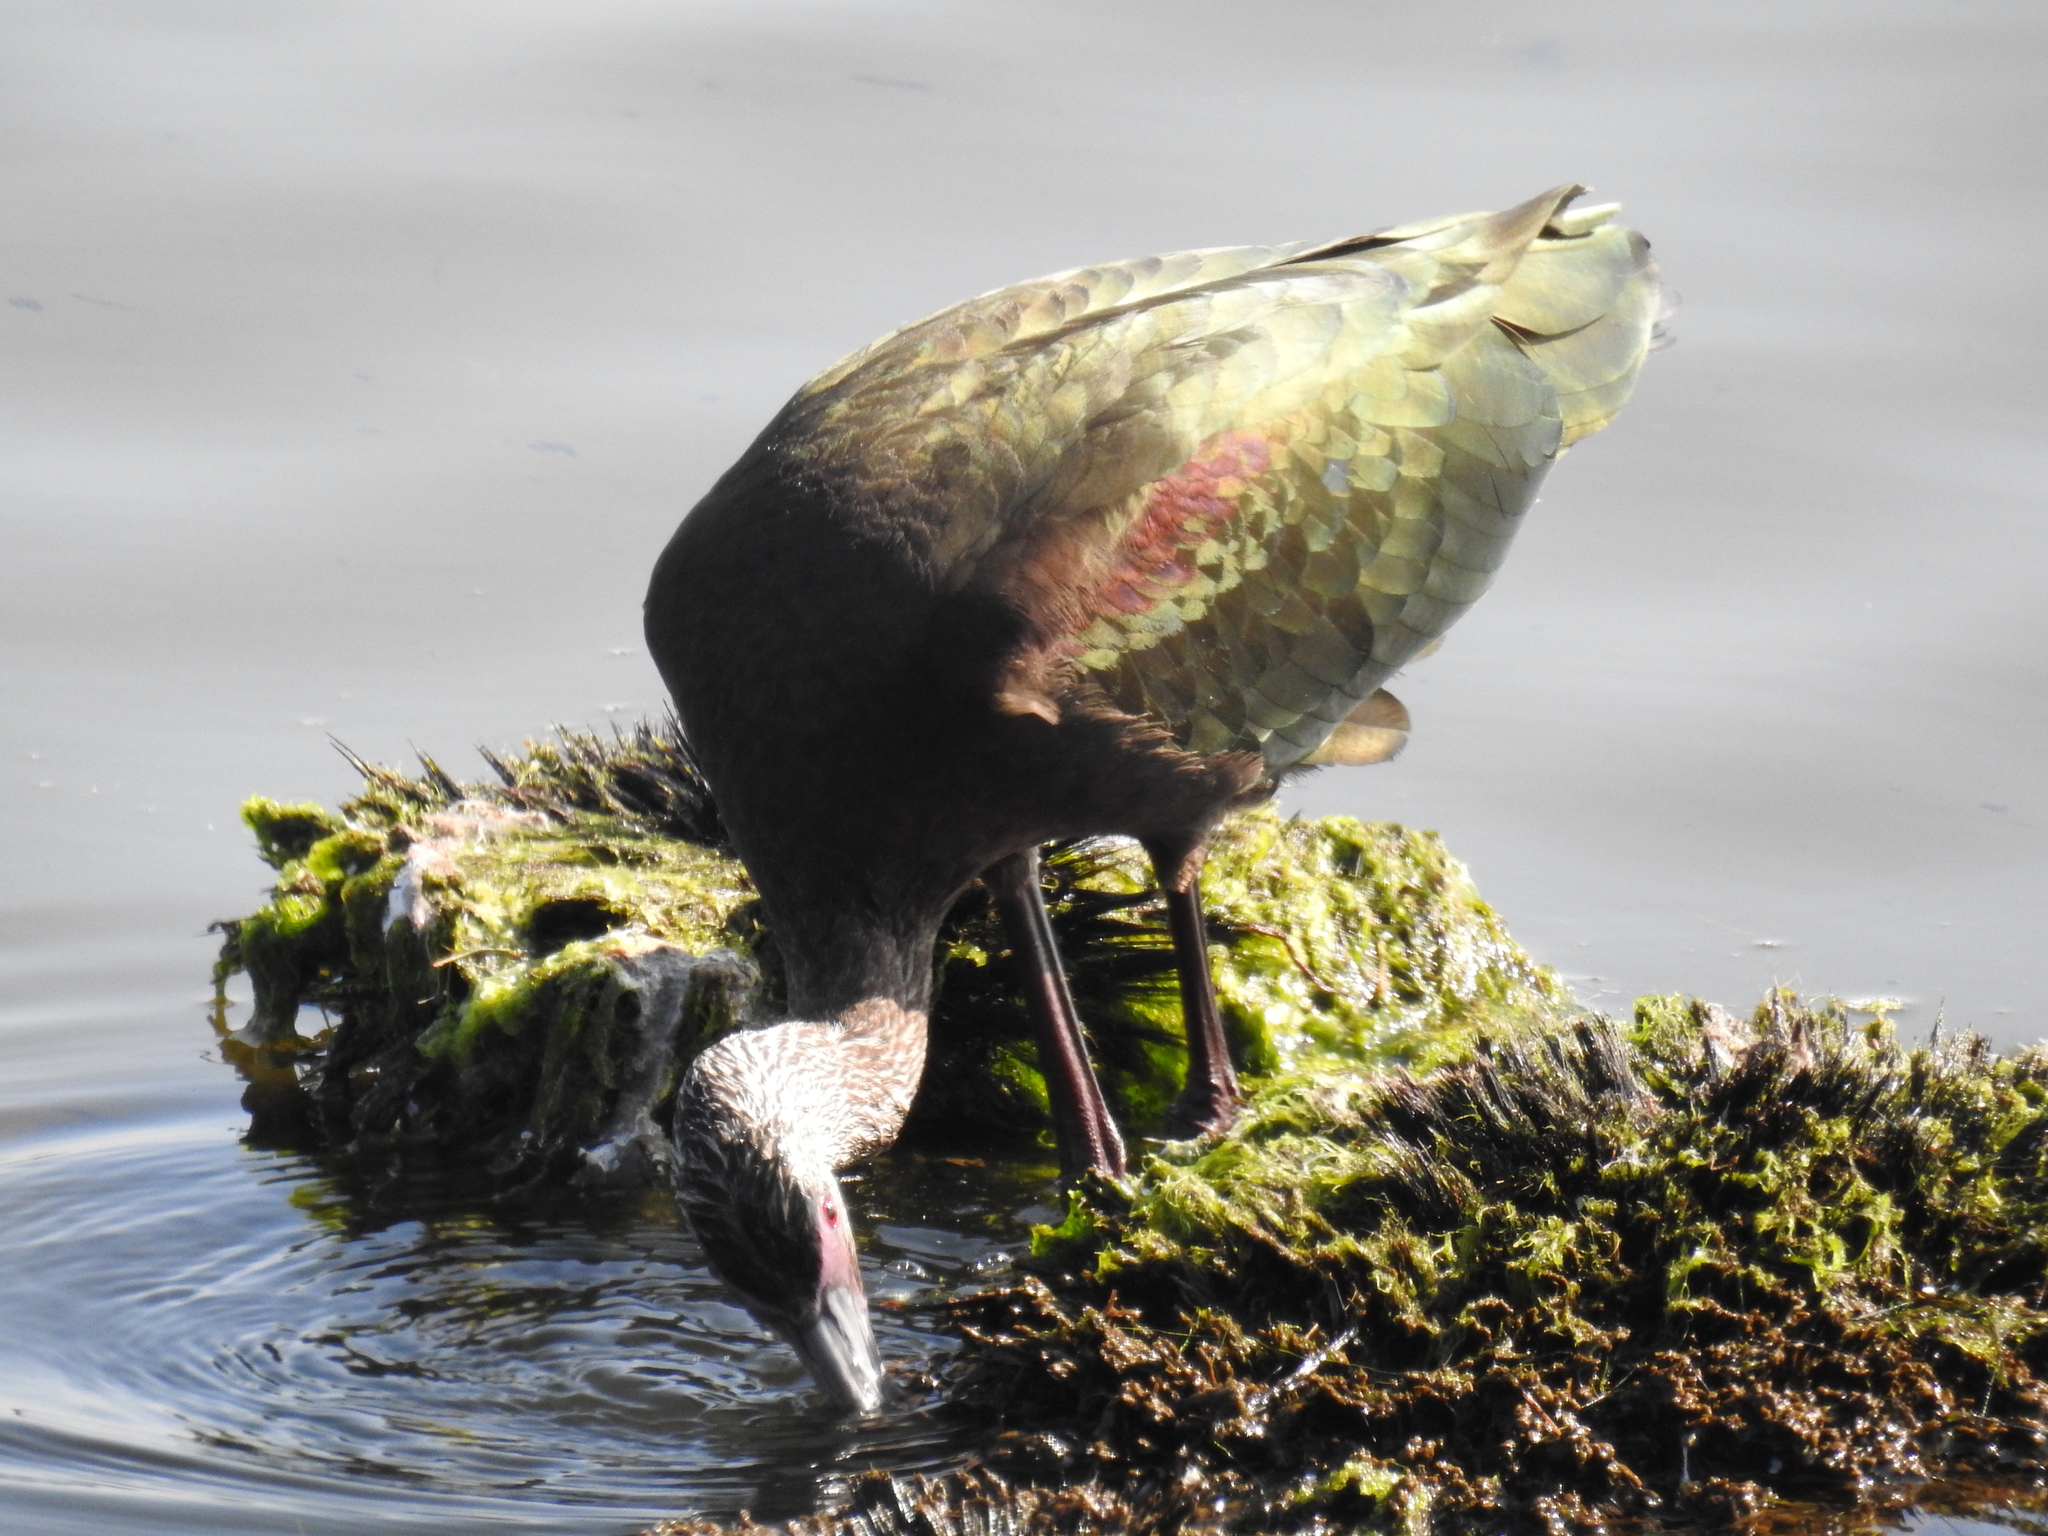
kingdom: Animalia
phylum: Chordata
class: Aves
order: Pelecaniformes
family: Threskiornithidae
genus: Plegadis
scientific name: Plegadis chihi
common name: White-faced ibis
